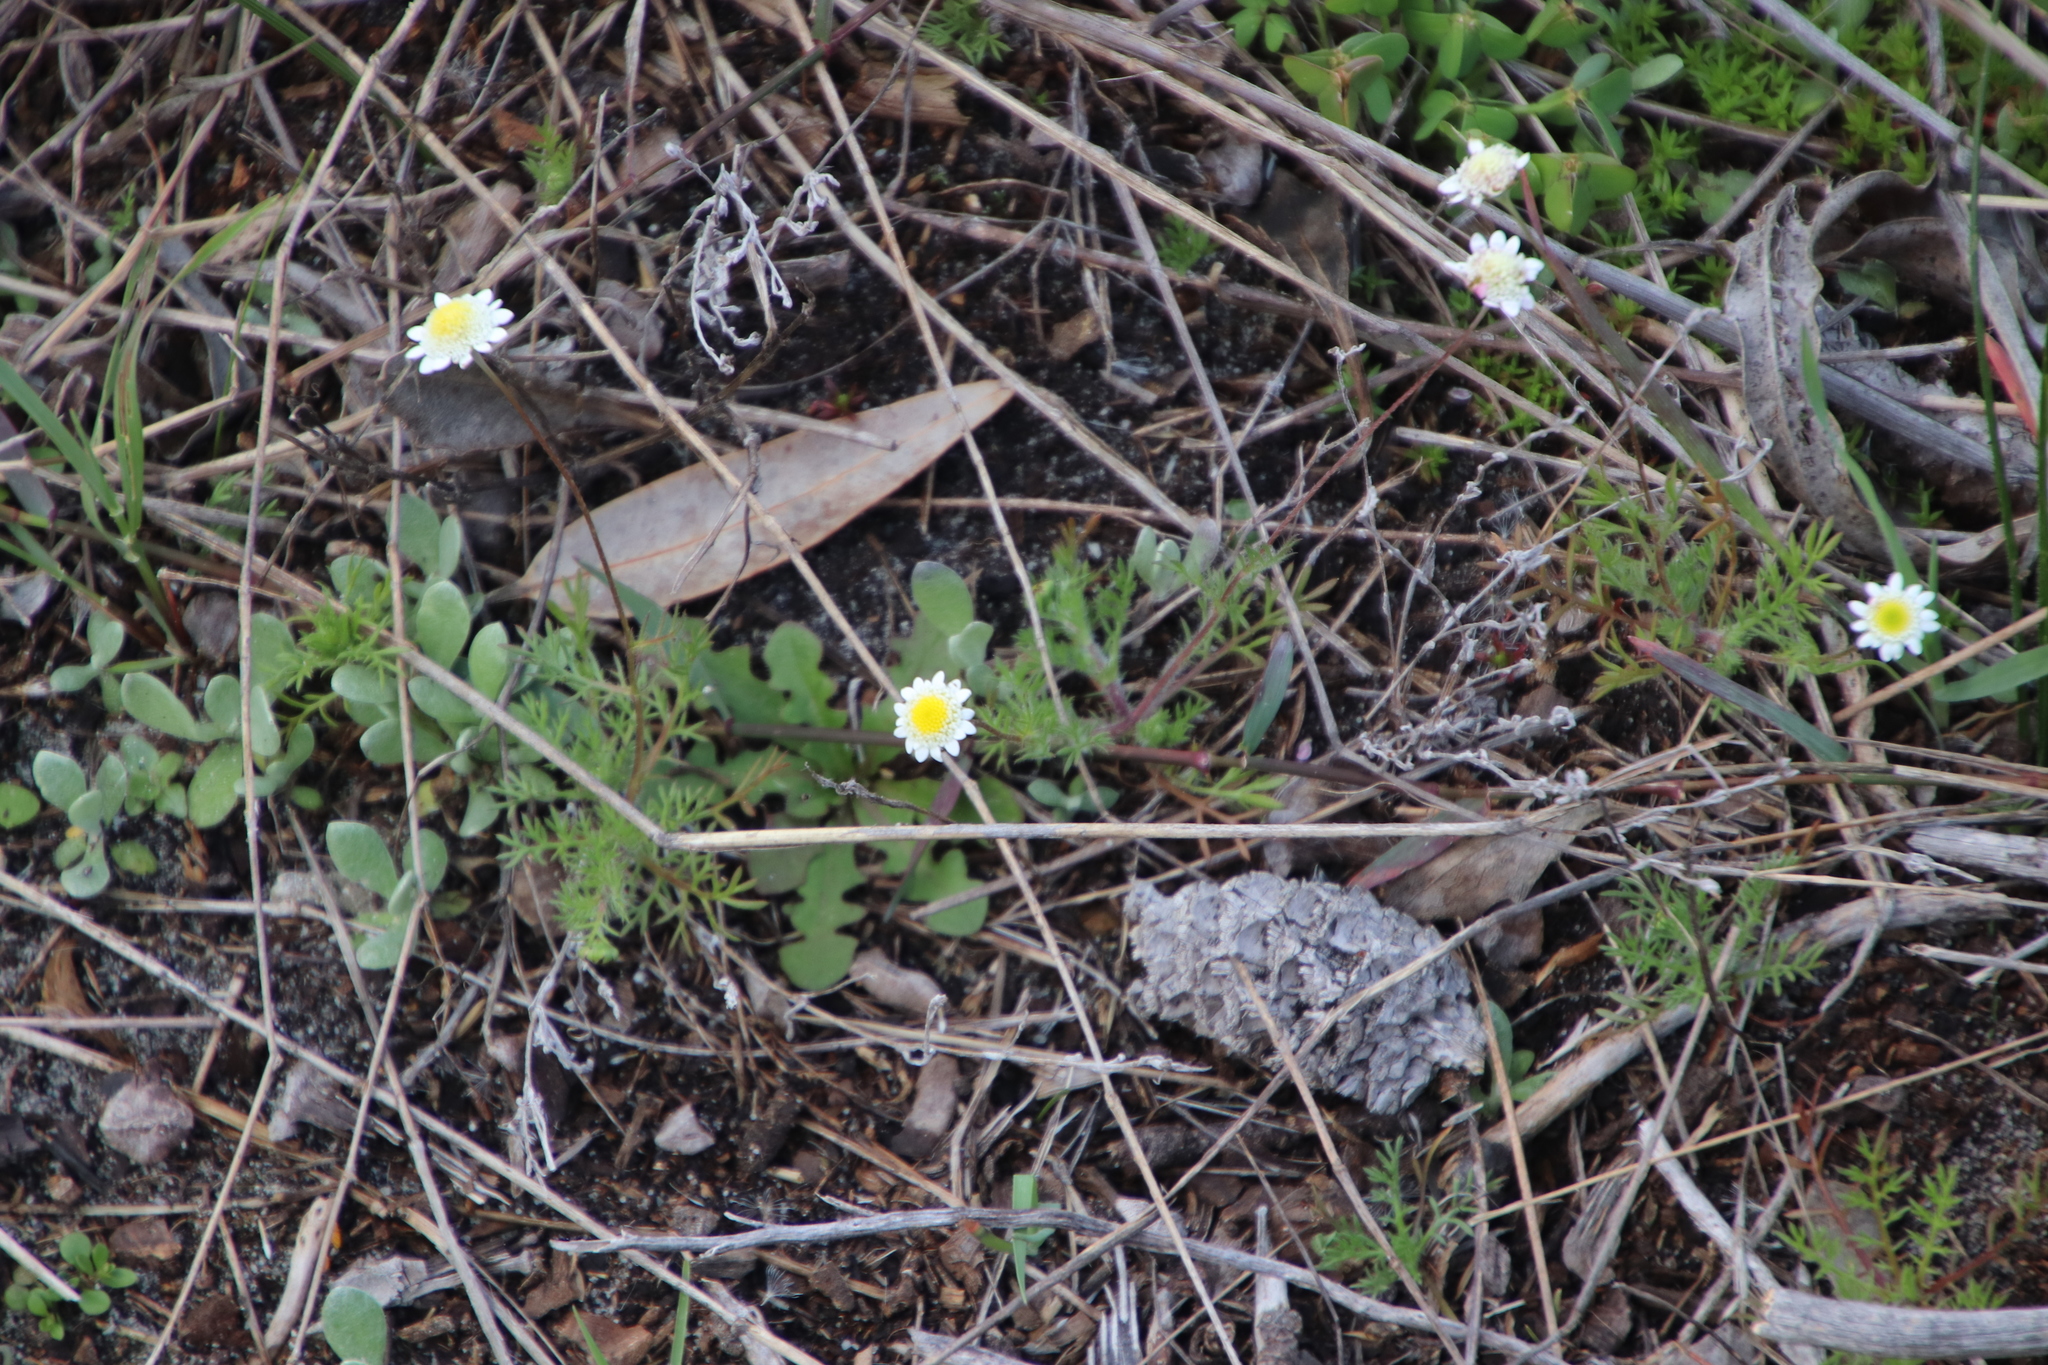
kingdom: Plantae
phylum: Tracheophyta
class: Magnoliopsida
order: Asterales
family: Asteraceae
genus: Cotula
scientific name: Cotula turbinata
